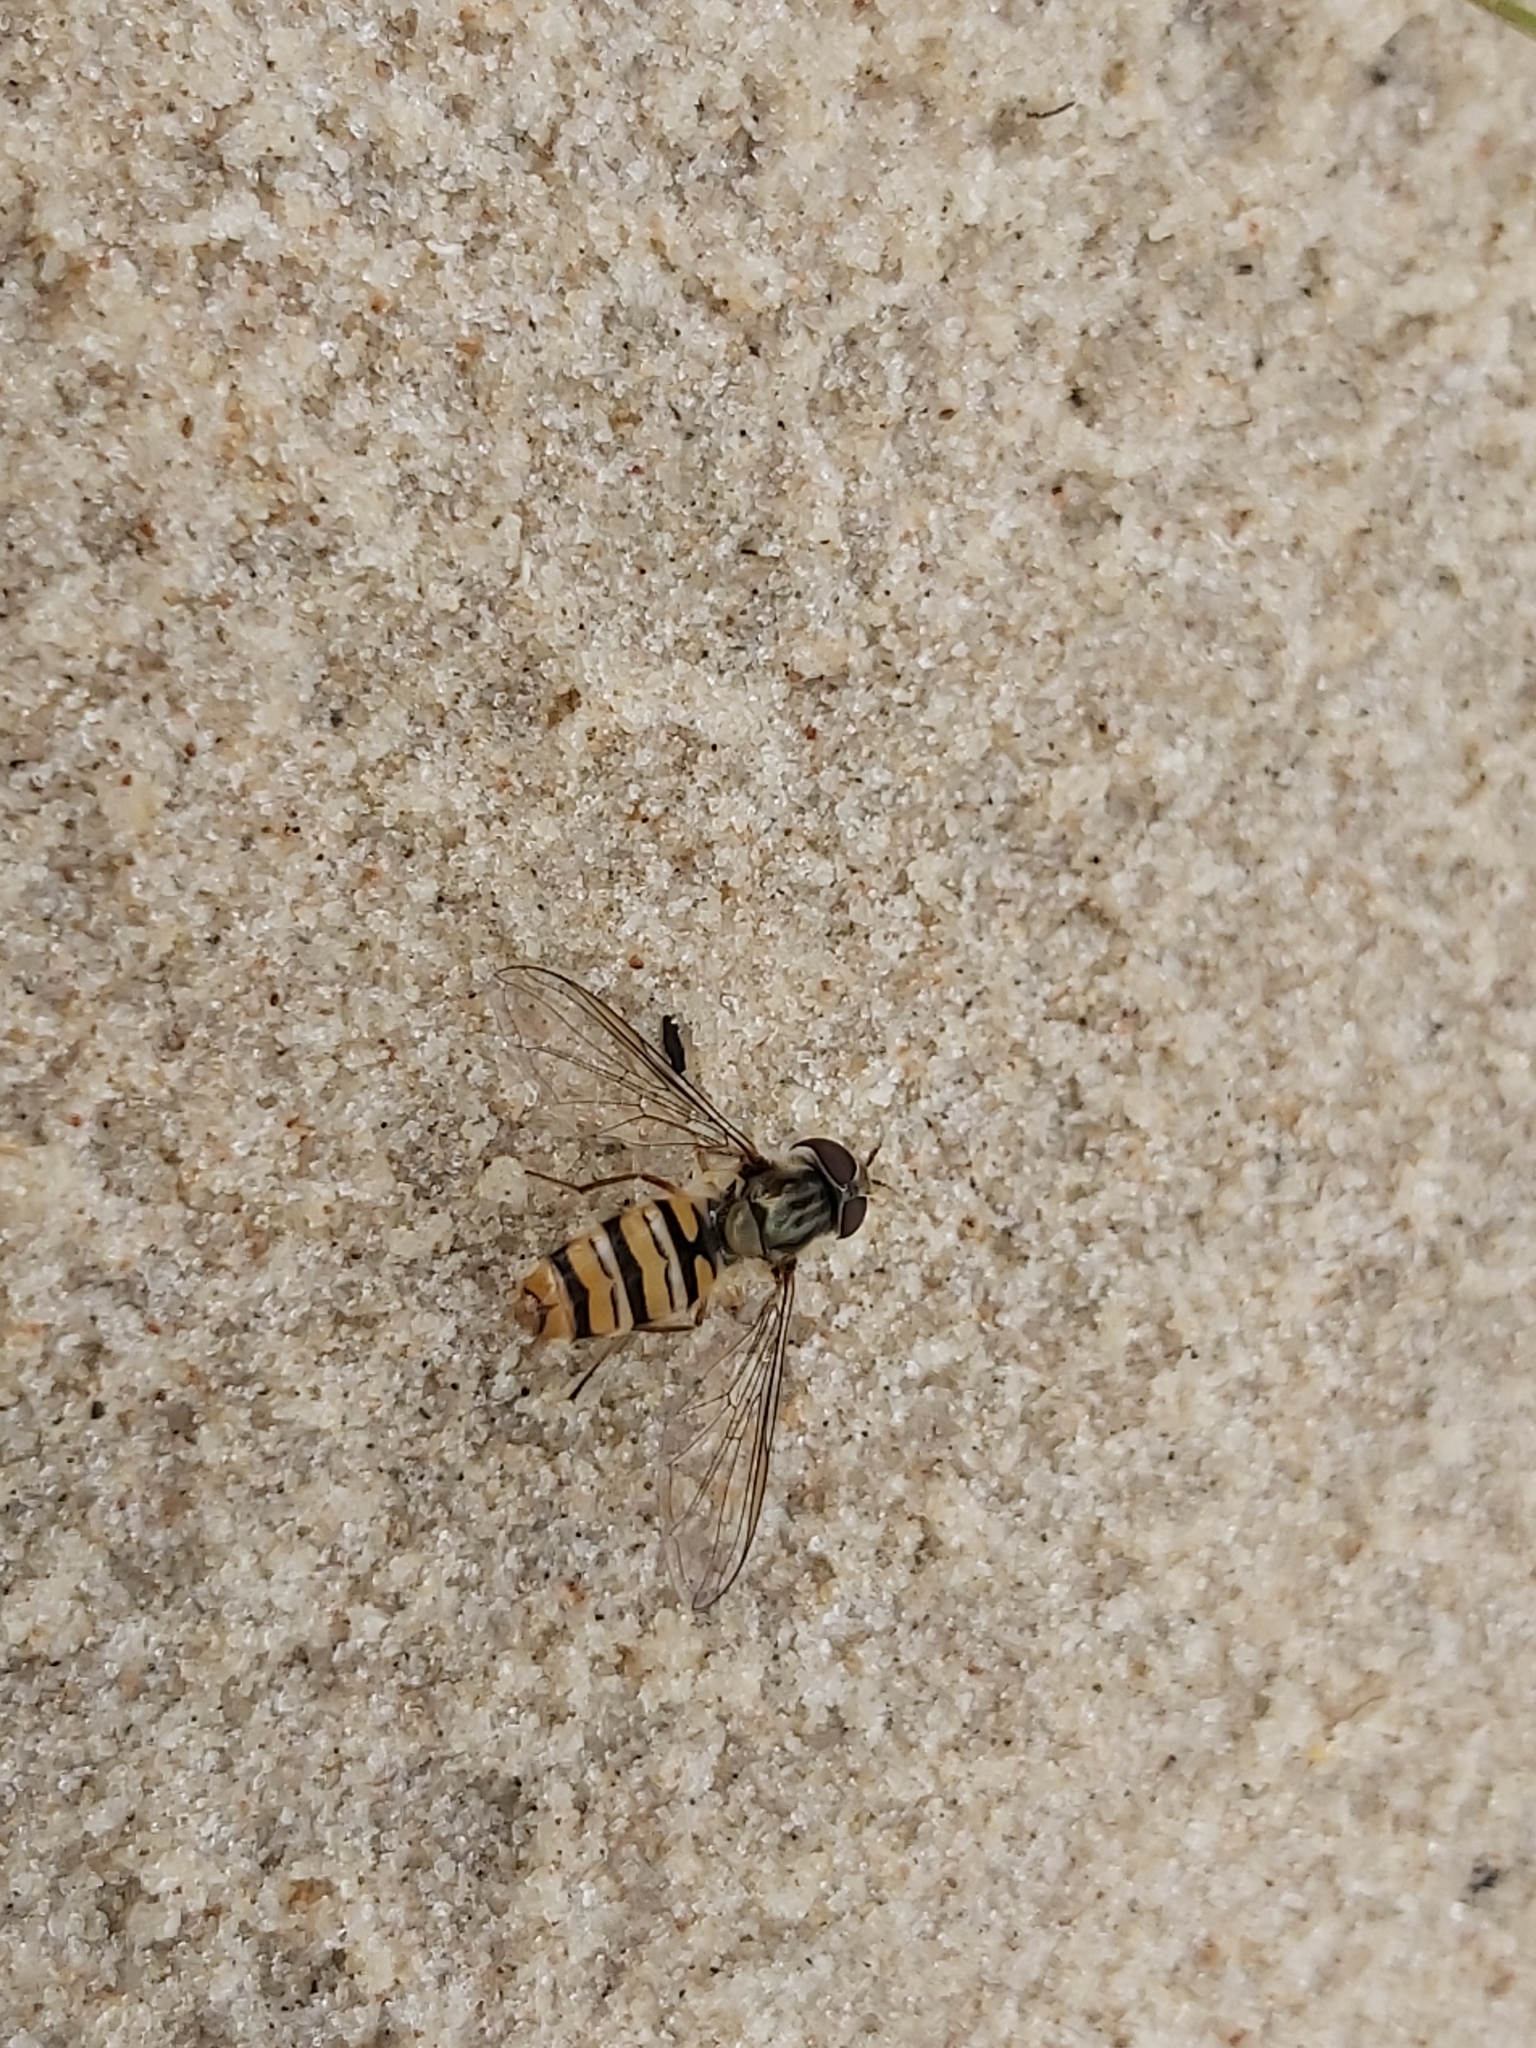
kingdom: Animalia
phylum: Arthropoda
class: Insecta
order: Diptera
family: Syrphidae
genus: Episyrphus
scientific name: Episyrphus balteatus
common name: Marmalade hoverfly
